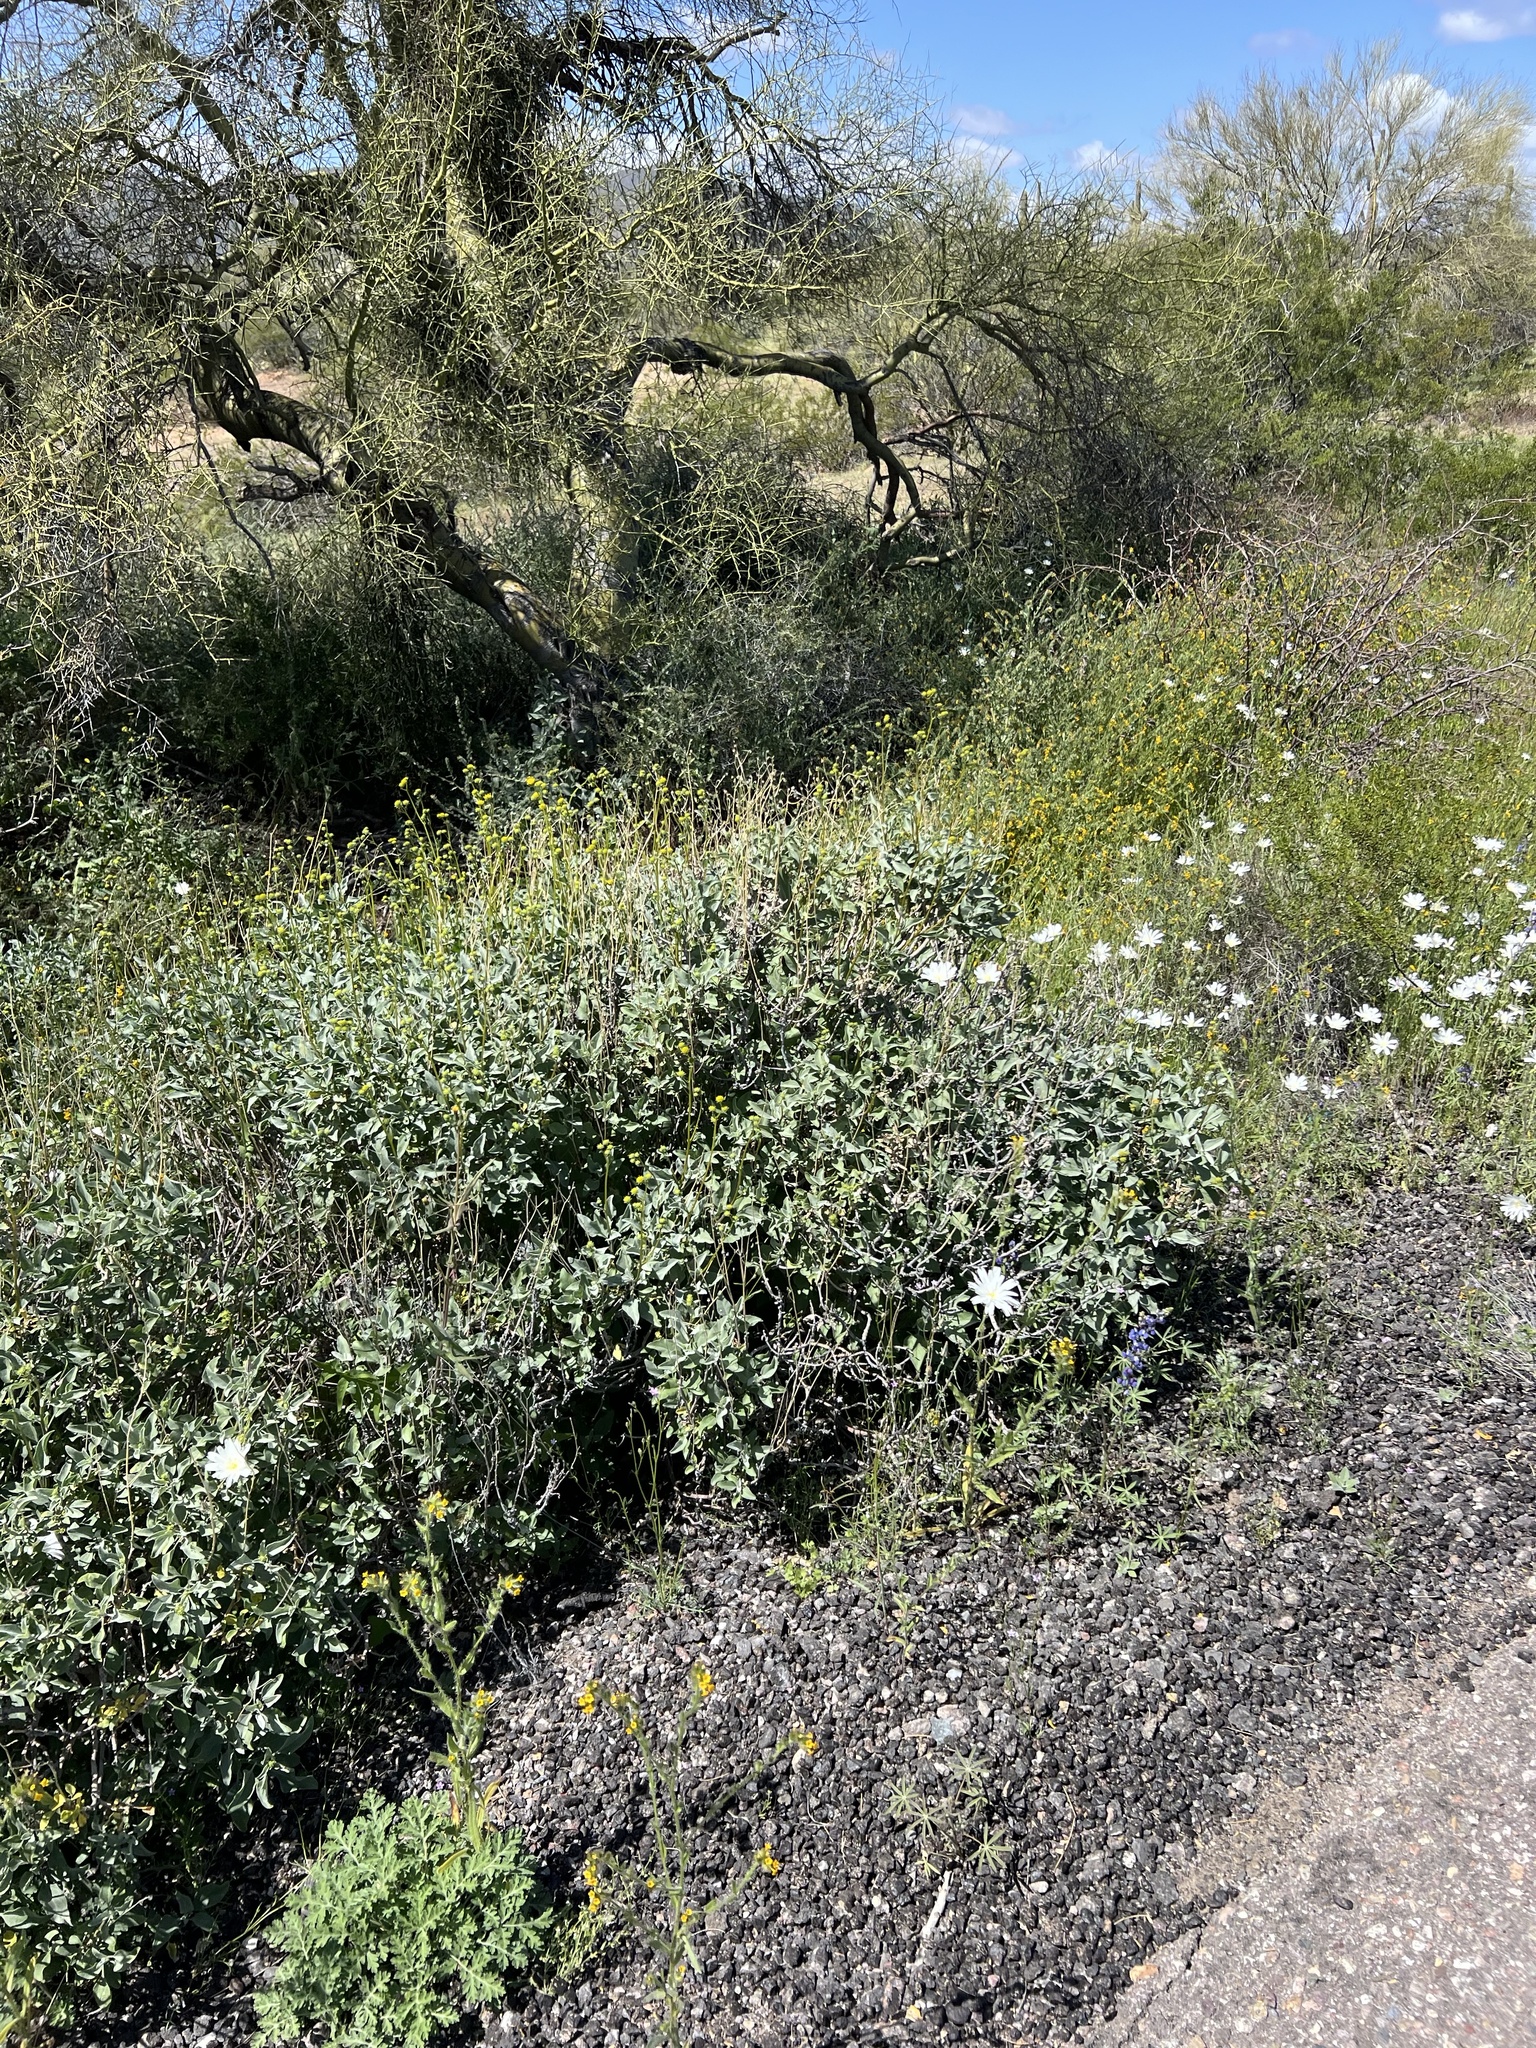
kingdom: Plantae
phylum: Tracheophyta
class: Magnoliopsida
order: Asterales
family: Asteraceae
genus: Encelia
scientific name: Encelia farinosa
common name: Brittlebush
